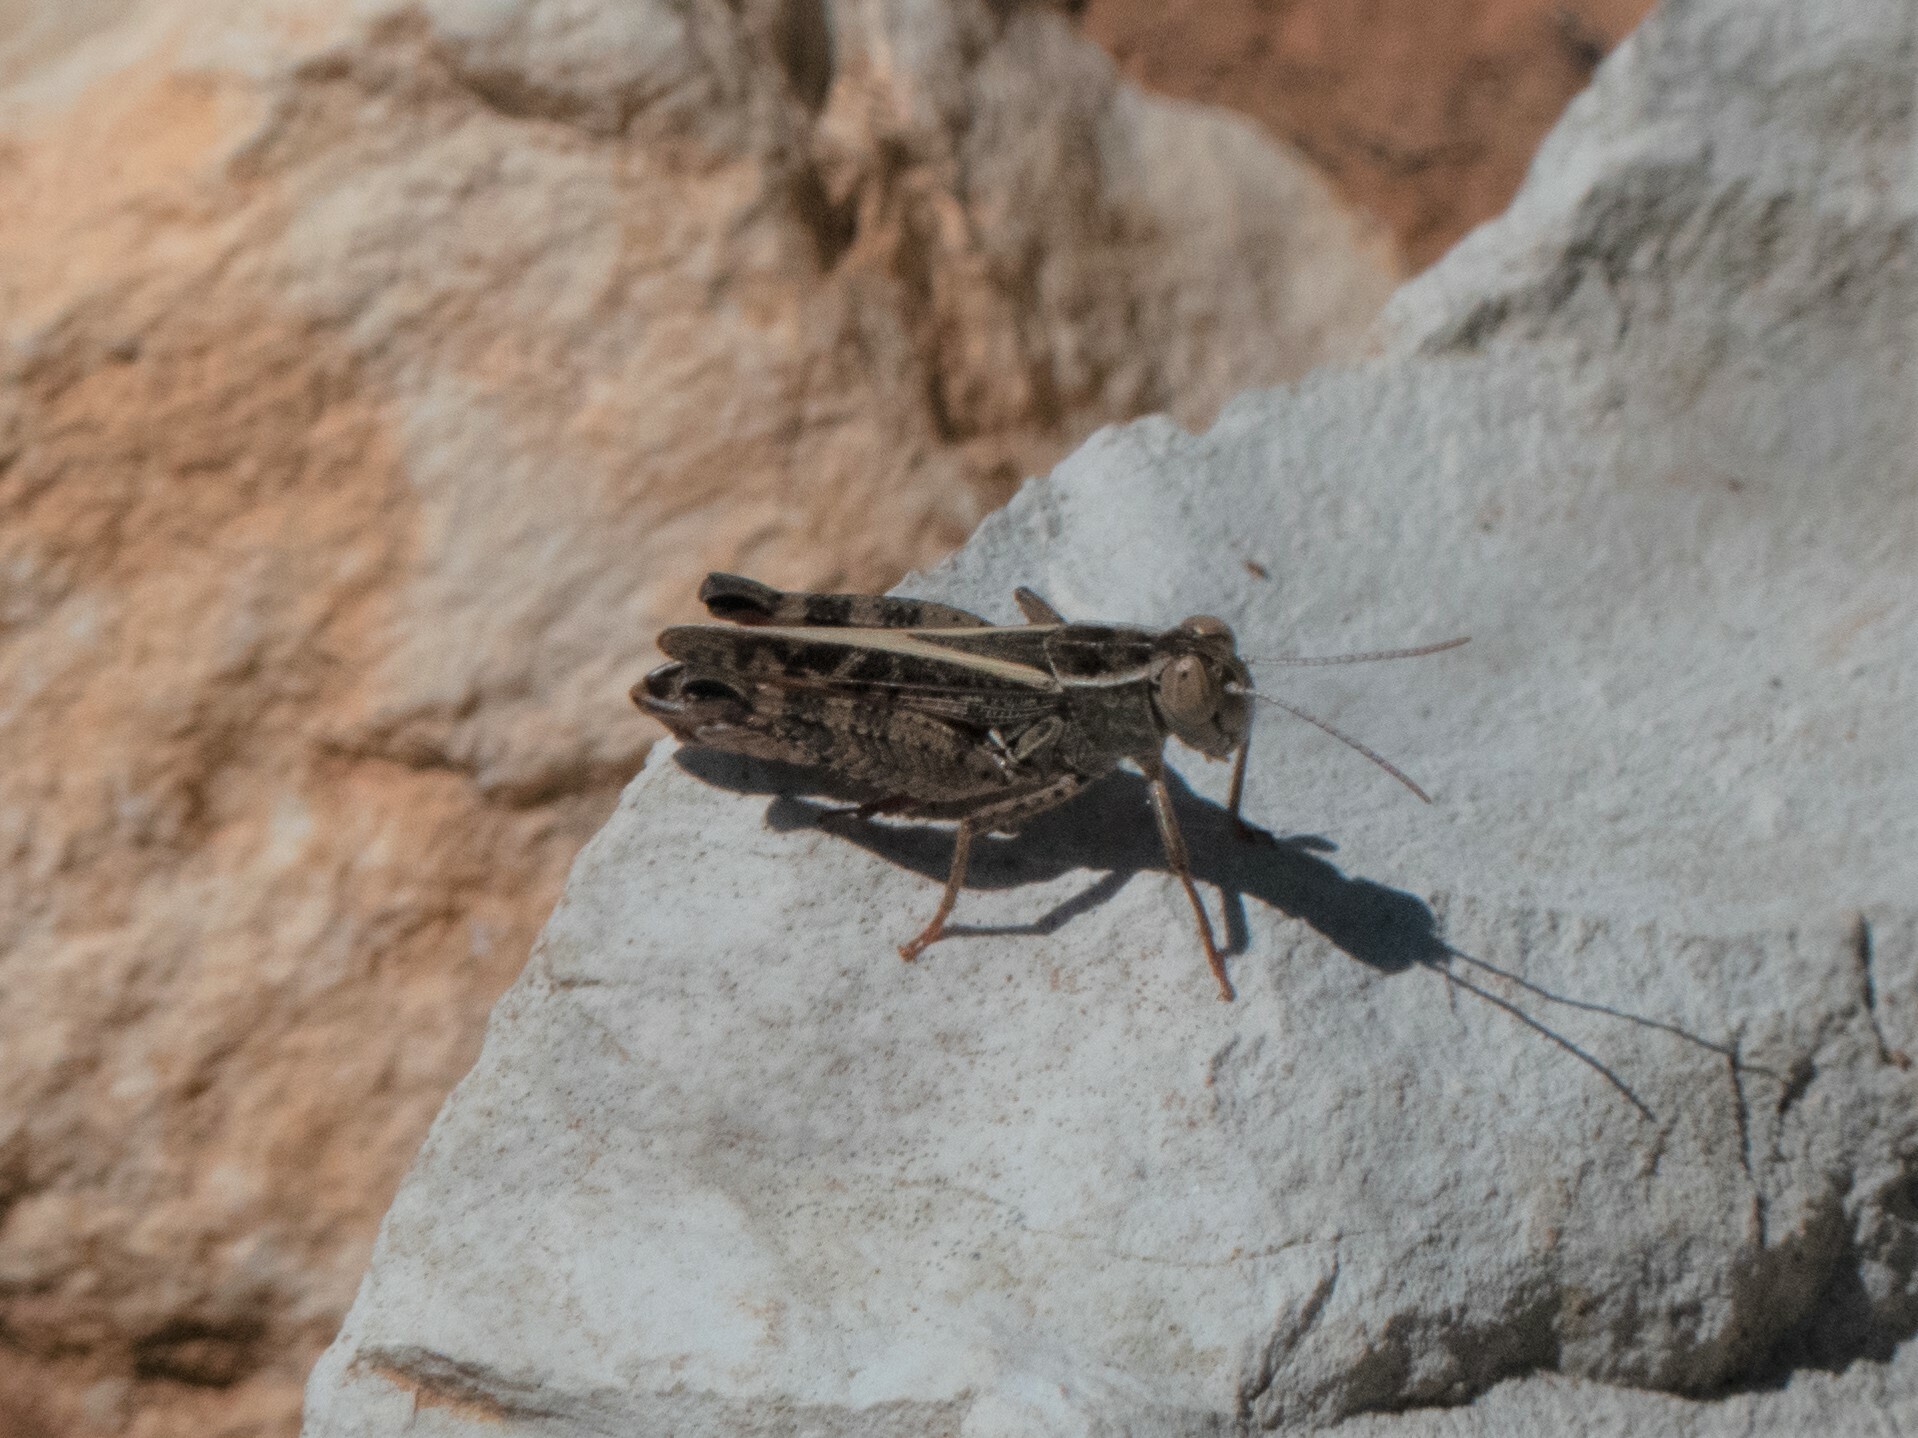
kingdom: Animalia
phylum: Arthropoda
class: Insecta
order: Orthoptera
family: Acrididae
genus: Calliptamus
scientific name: Calliptamus italicus
